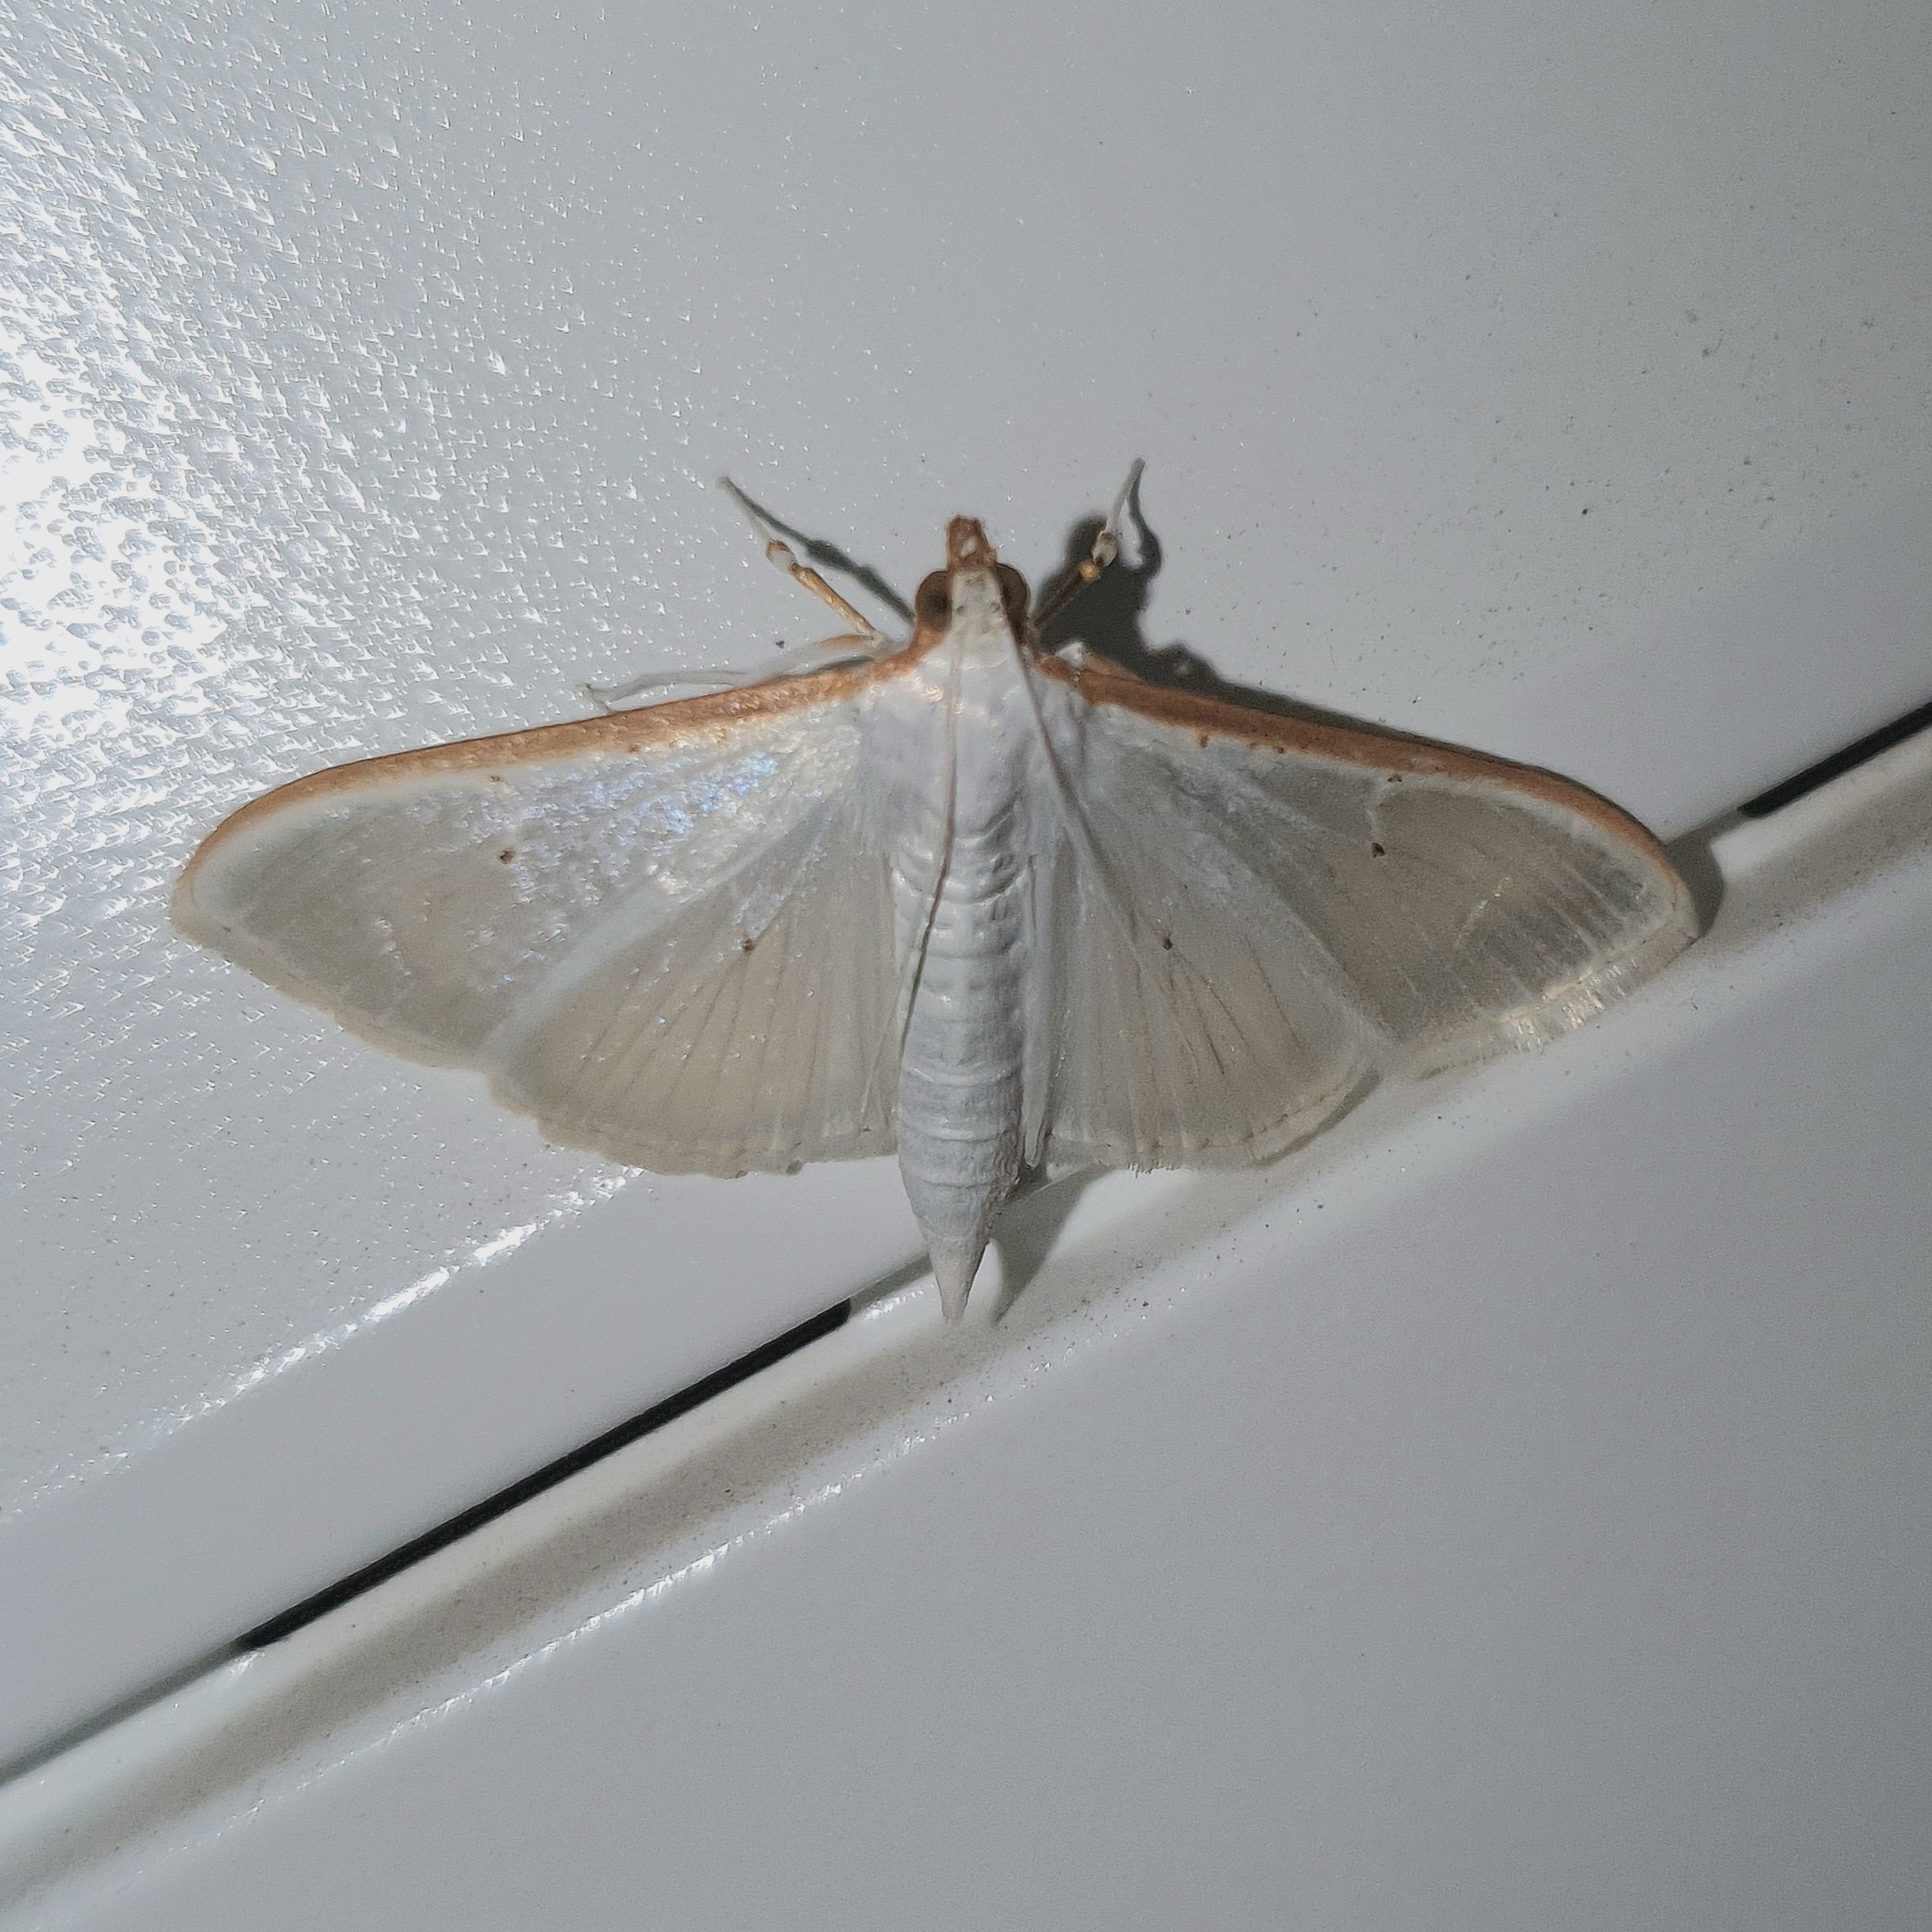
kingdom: Animalia
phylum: Arthropoda
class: Insecta
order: Lepidoptera
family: Crambidae
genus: Palpita
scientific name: Palpita vitrealis
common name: Olive-tree pearl
